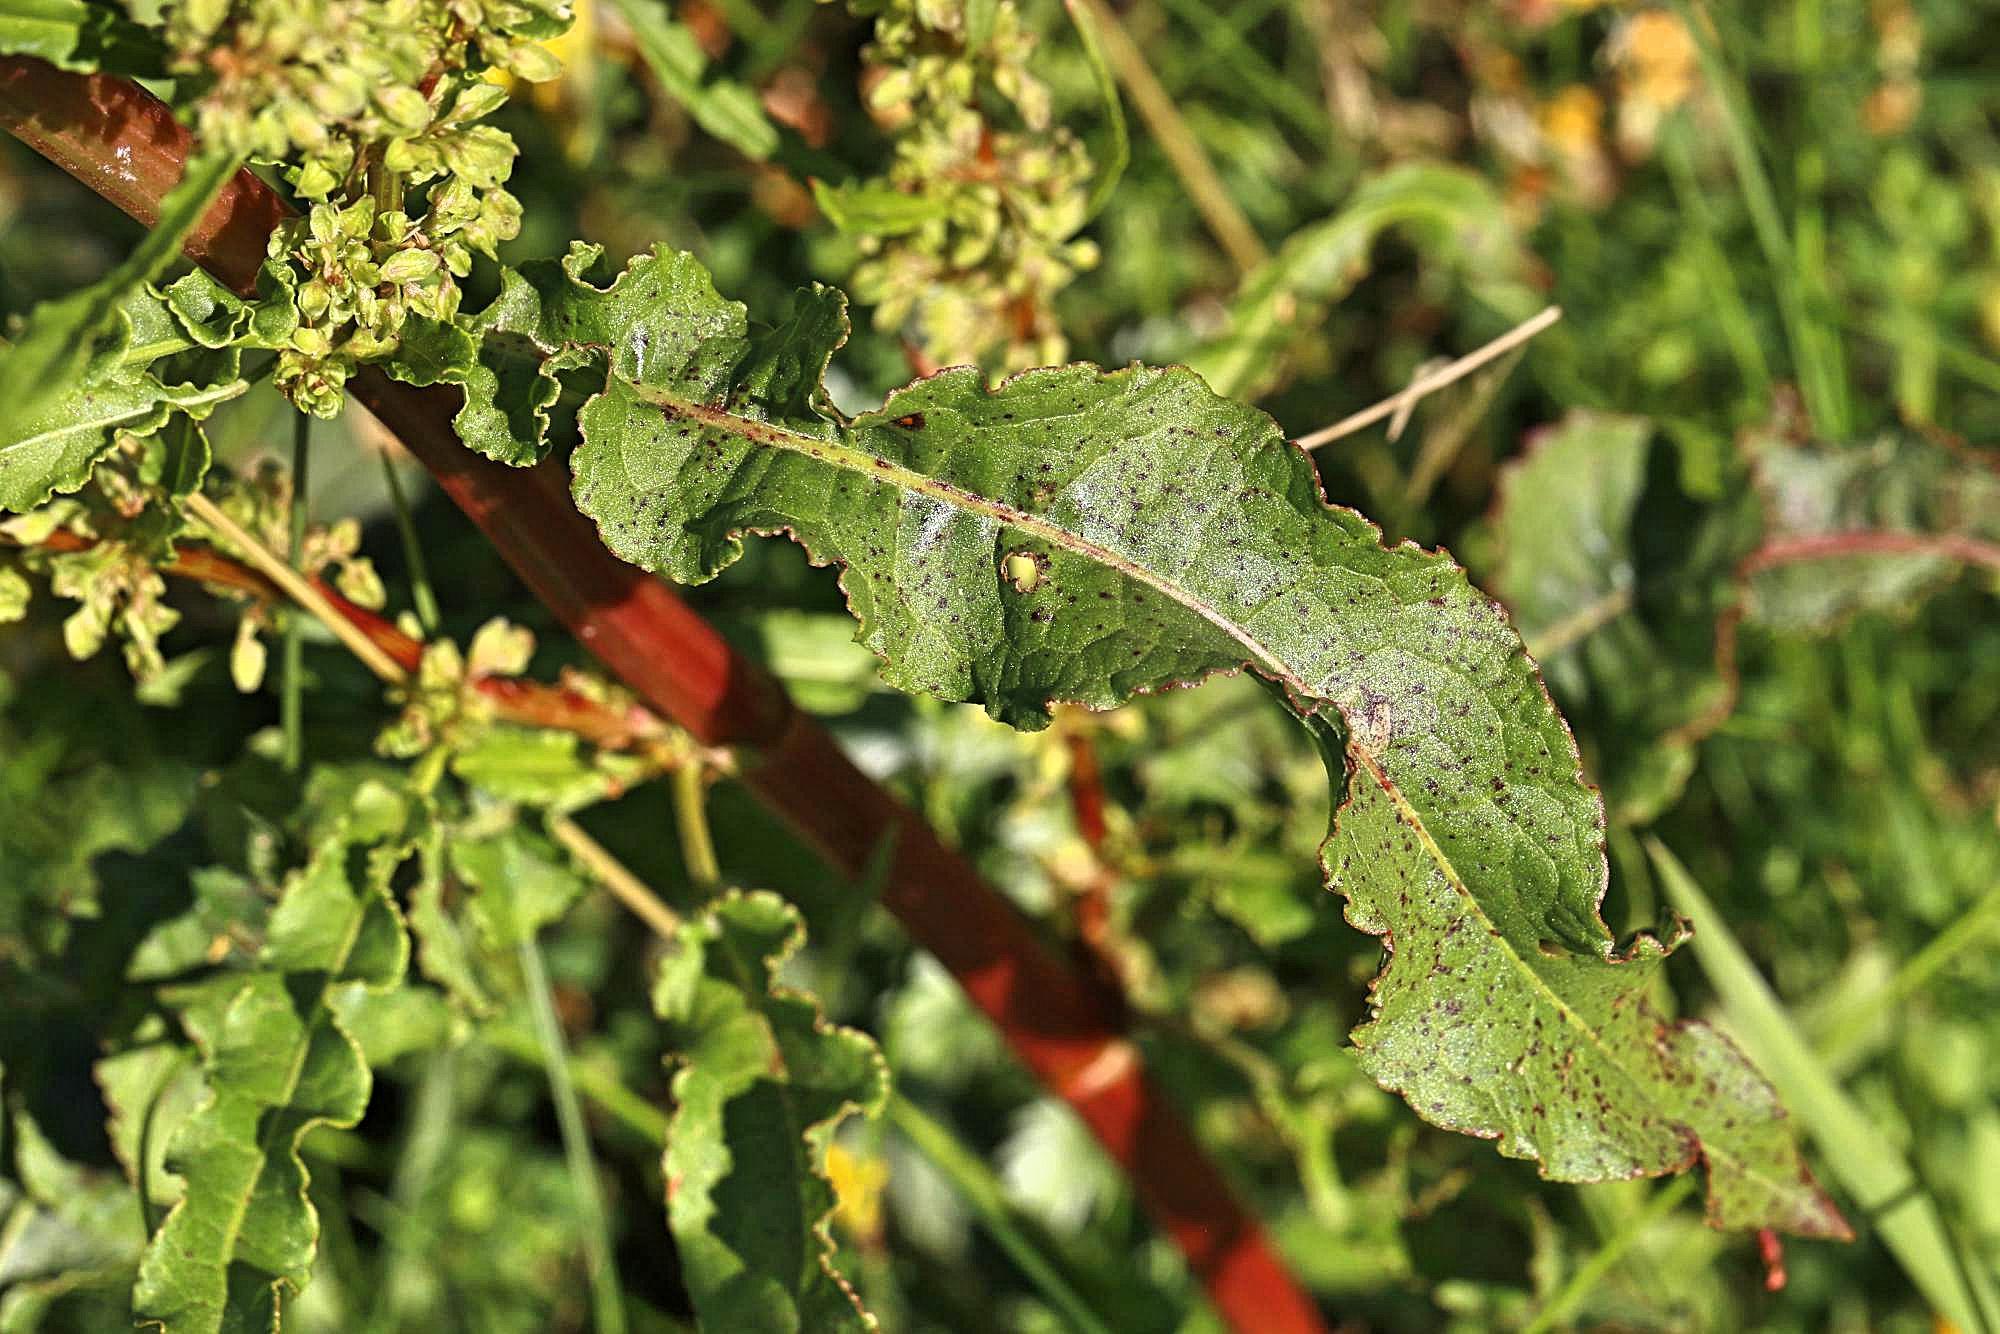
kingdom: Plantae
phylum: Tracheophyta
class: Magnoliopsida
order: Caryophyllales
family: Polygonaceae
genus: Rumex
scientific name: Rumex crispus
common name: Curled dock
